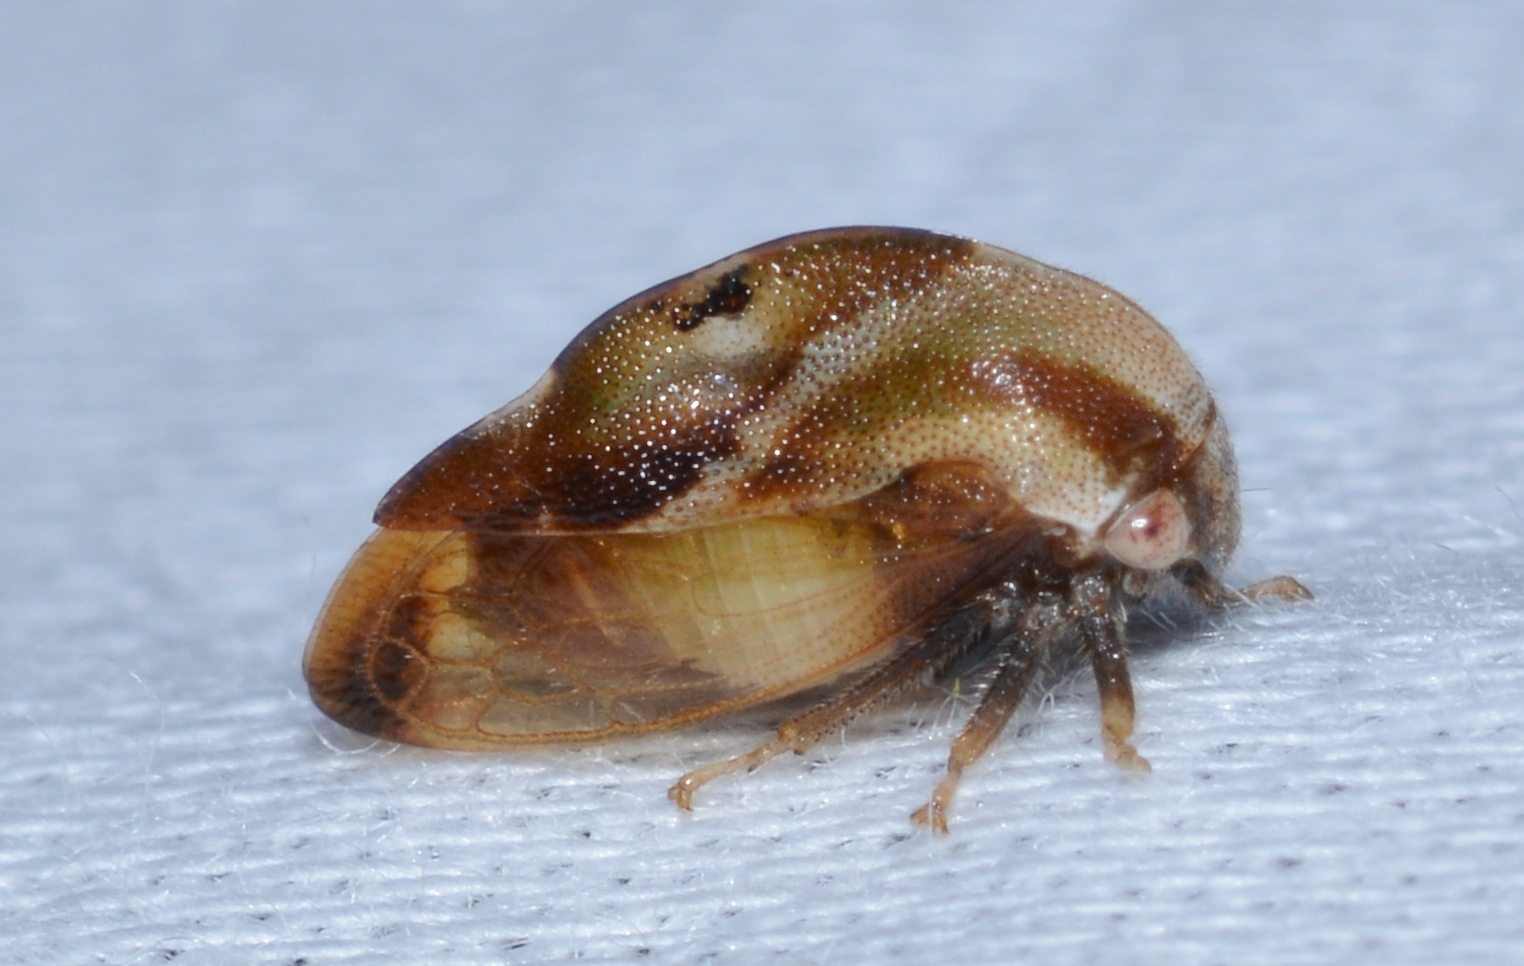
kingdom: Animalia
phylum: Arthropoda
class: Insecta
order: Hemiptera
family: Membracidae
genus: Cyrtolobus
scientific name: Cyrtolobus discoidalis
